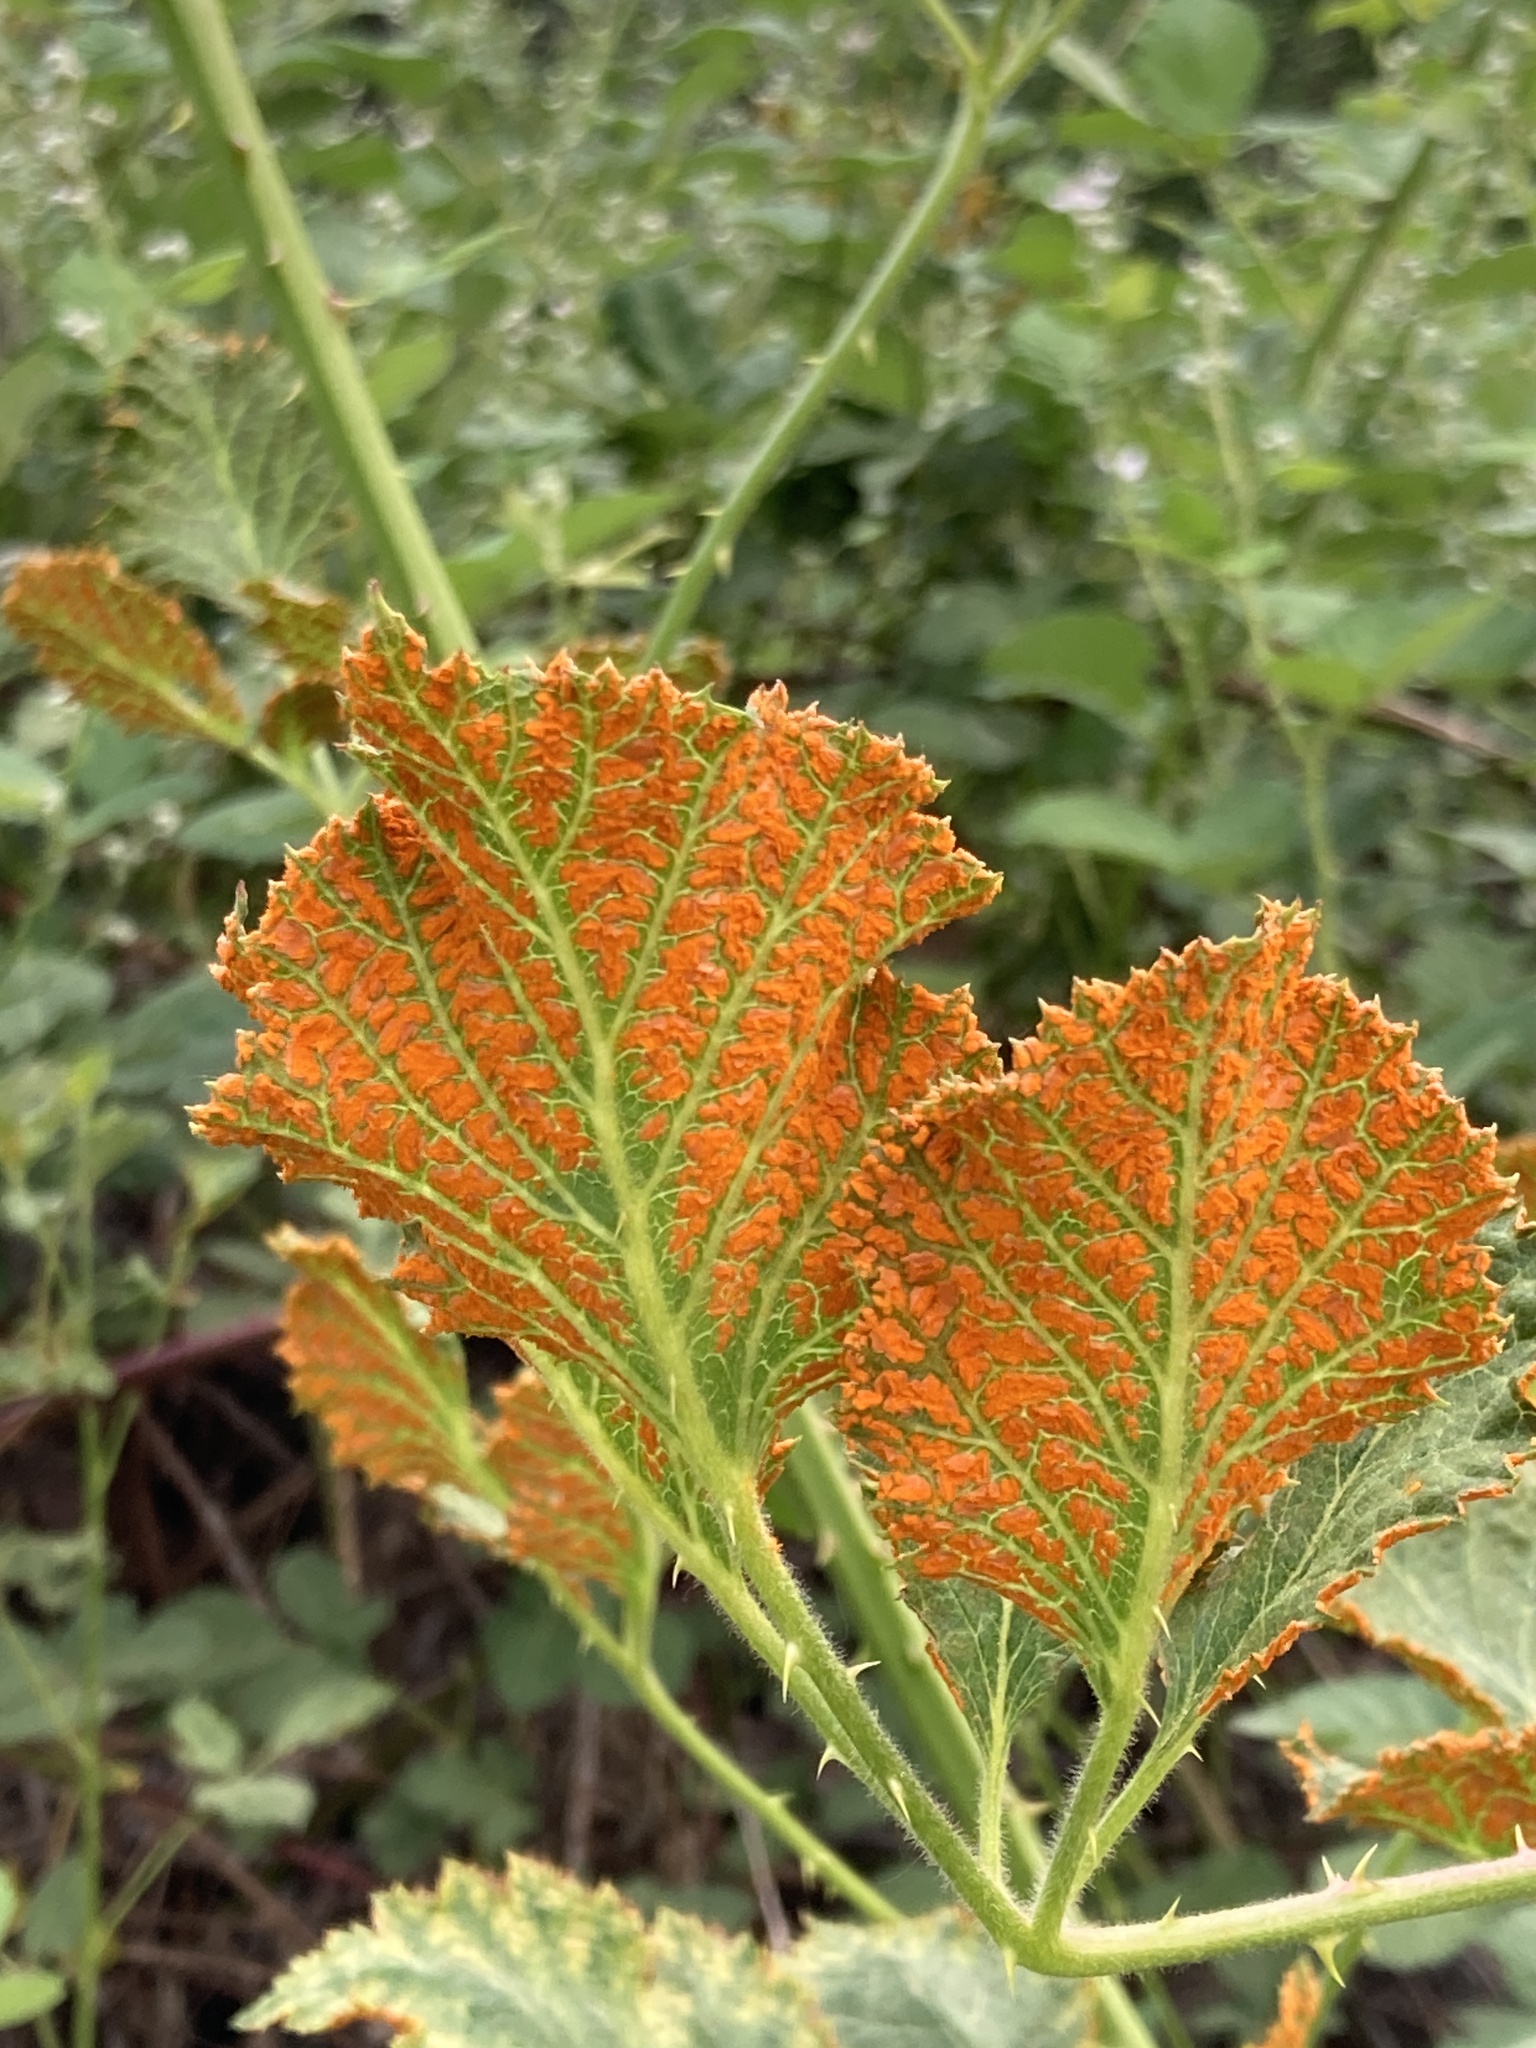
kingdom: Fungi
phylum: Basidiomycota
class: Pucciniomycetes
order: Pucciniales
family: Phragmidiaceae
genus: Arthuriomyces
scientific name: Arthuriomyces peckianus
